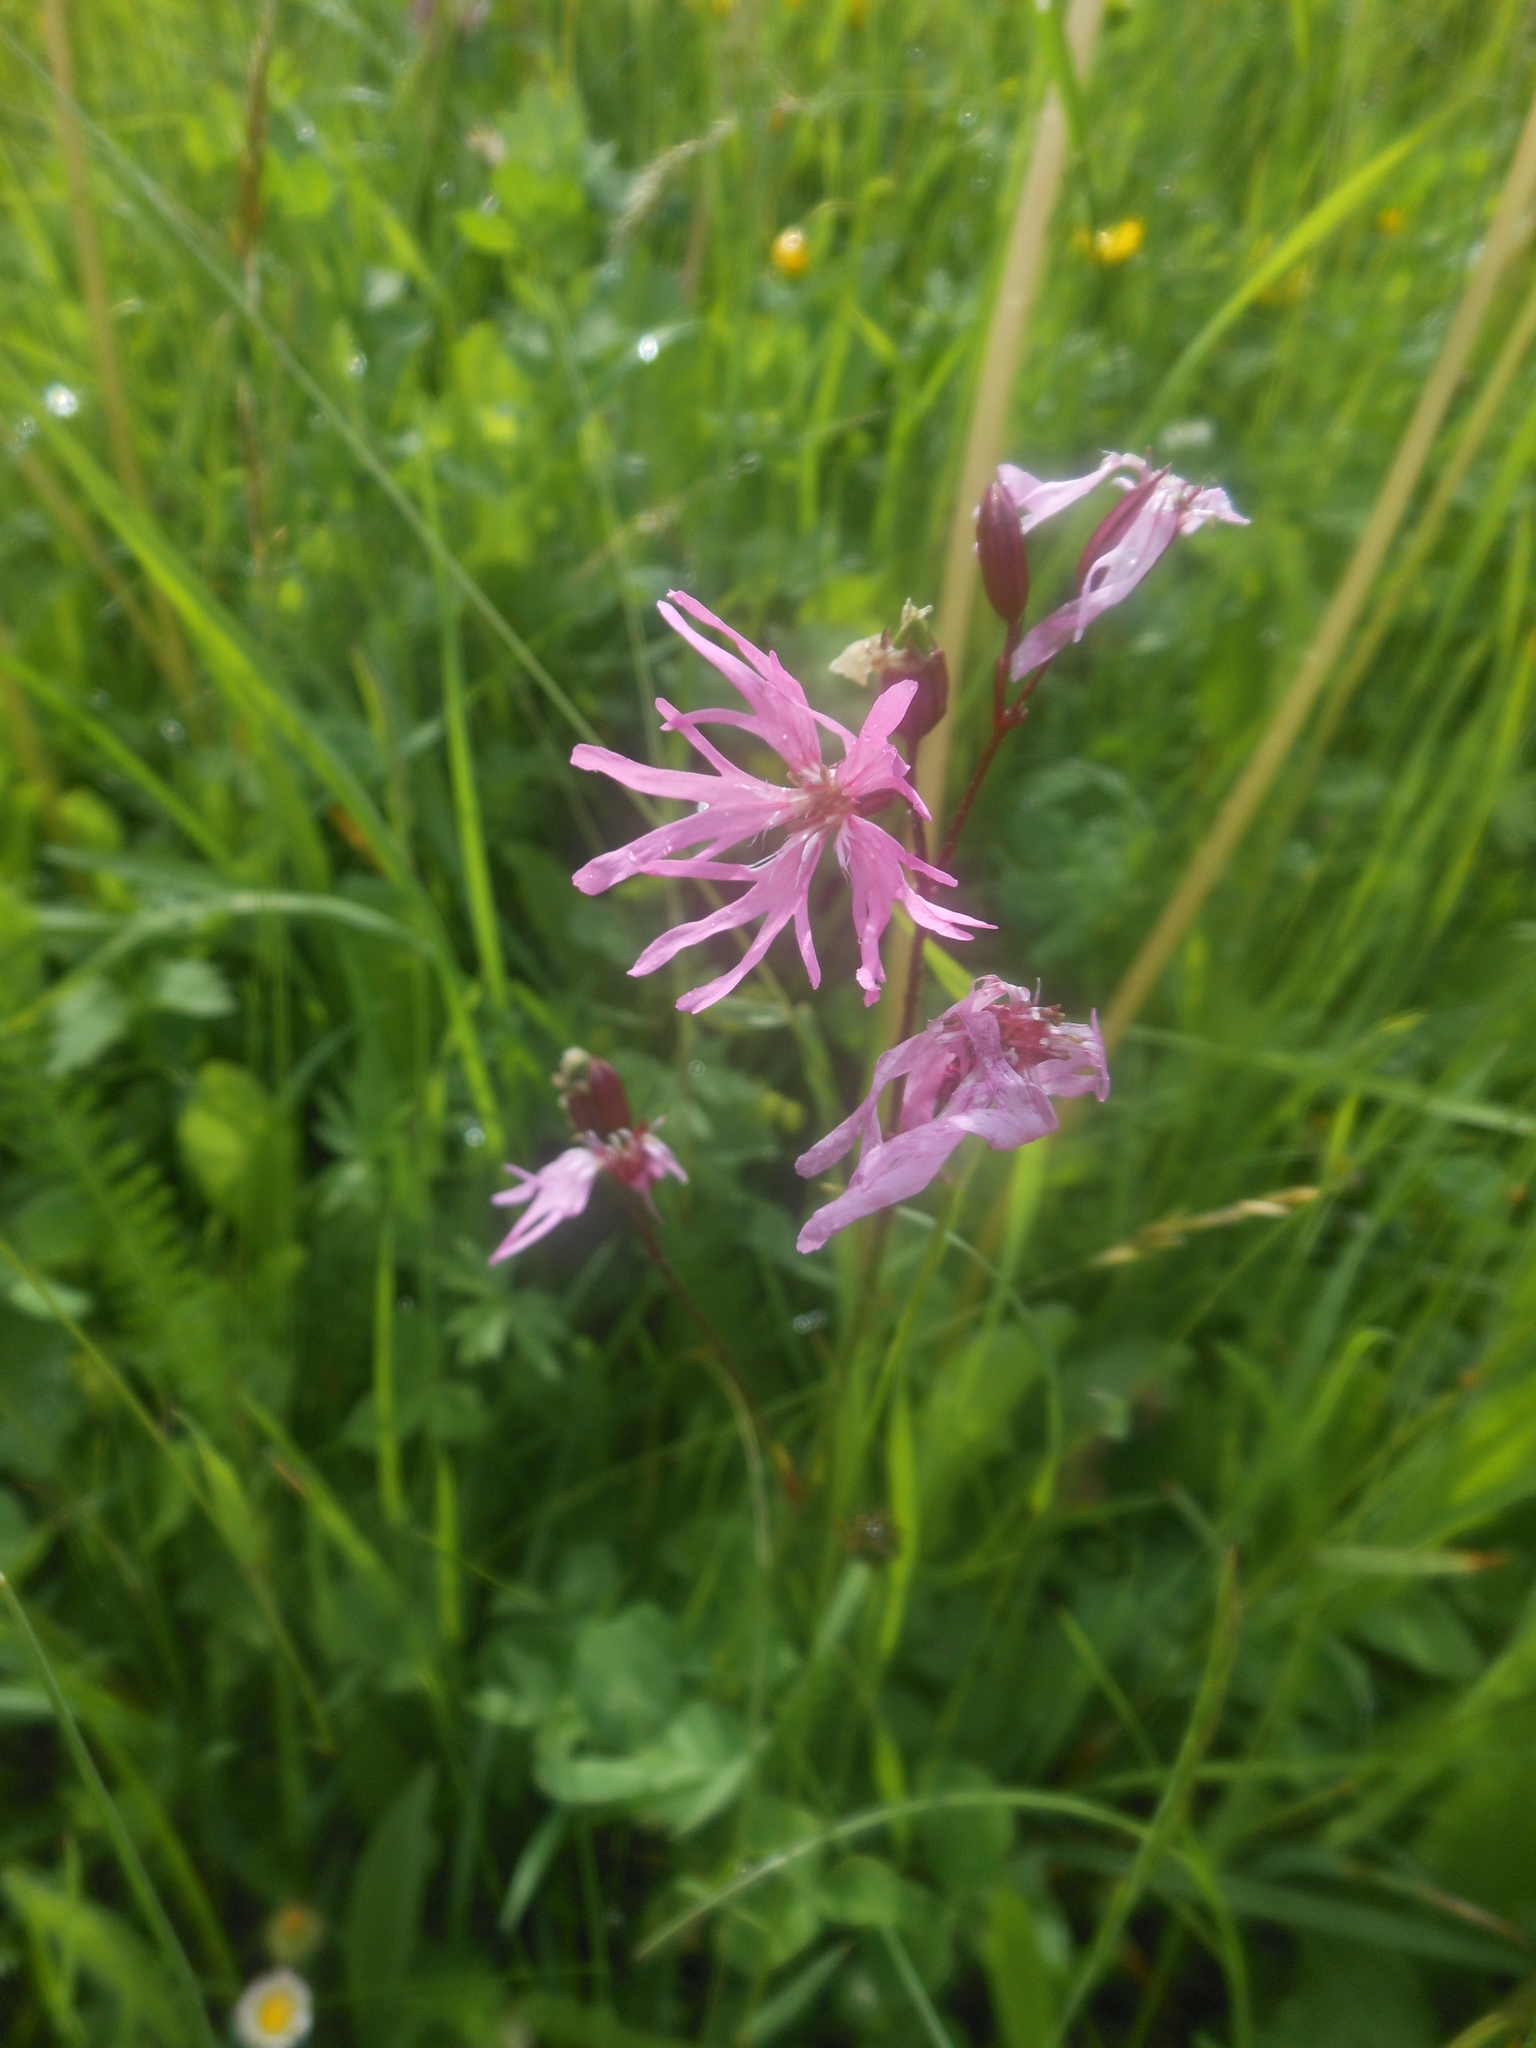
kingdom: Plantae
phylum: Tracheophyta
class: Magnoliopsida
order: Caryophyllales
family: Caryophyllaceae
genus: Silene
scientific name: Silene flos-cuculi
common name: Ragged-robin
